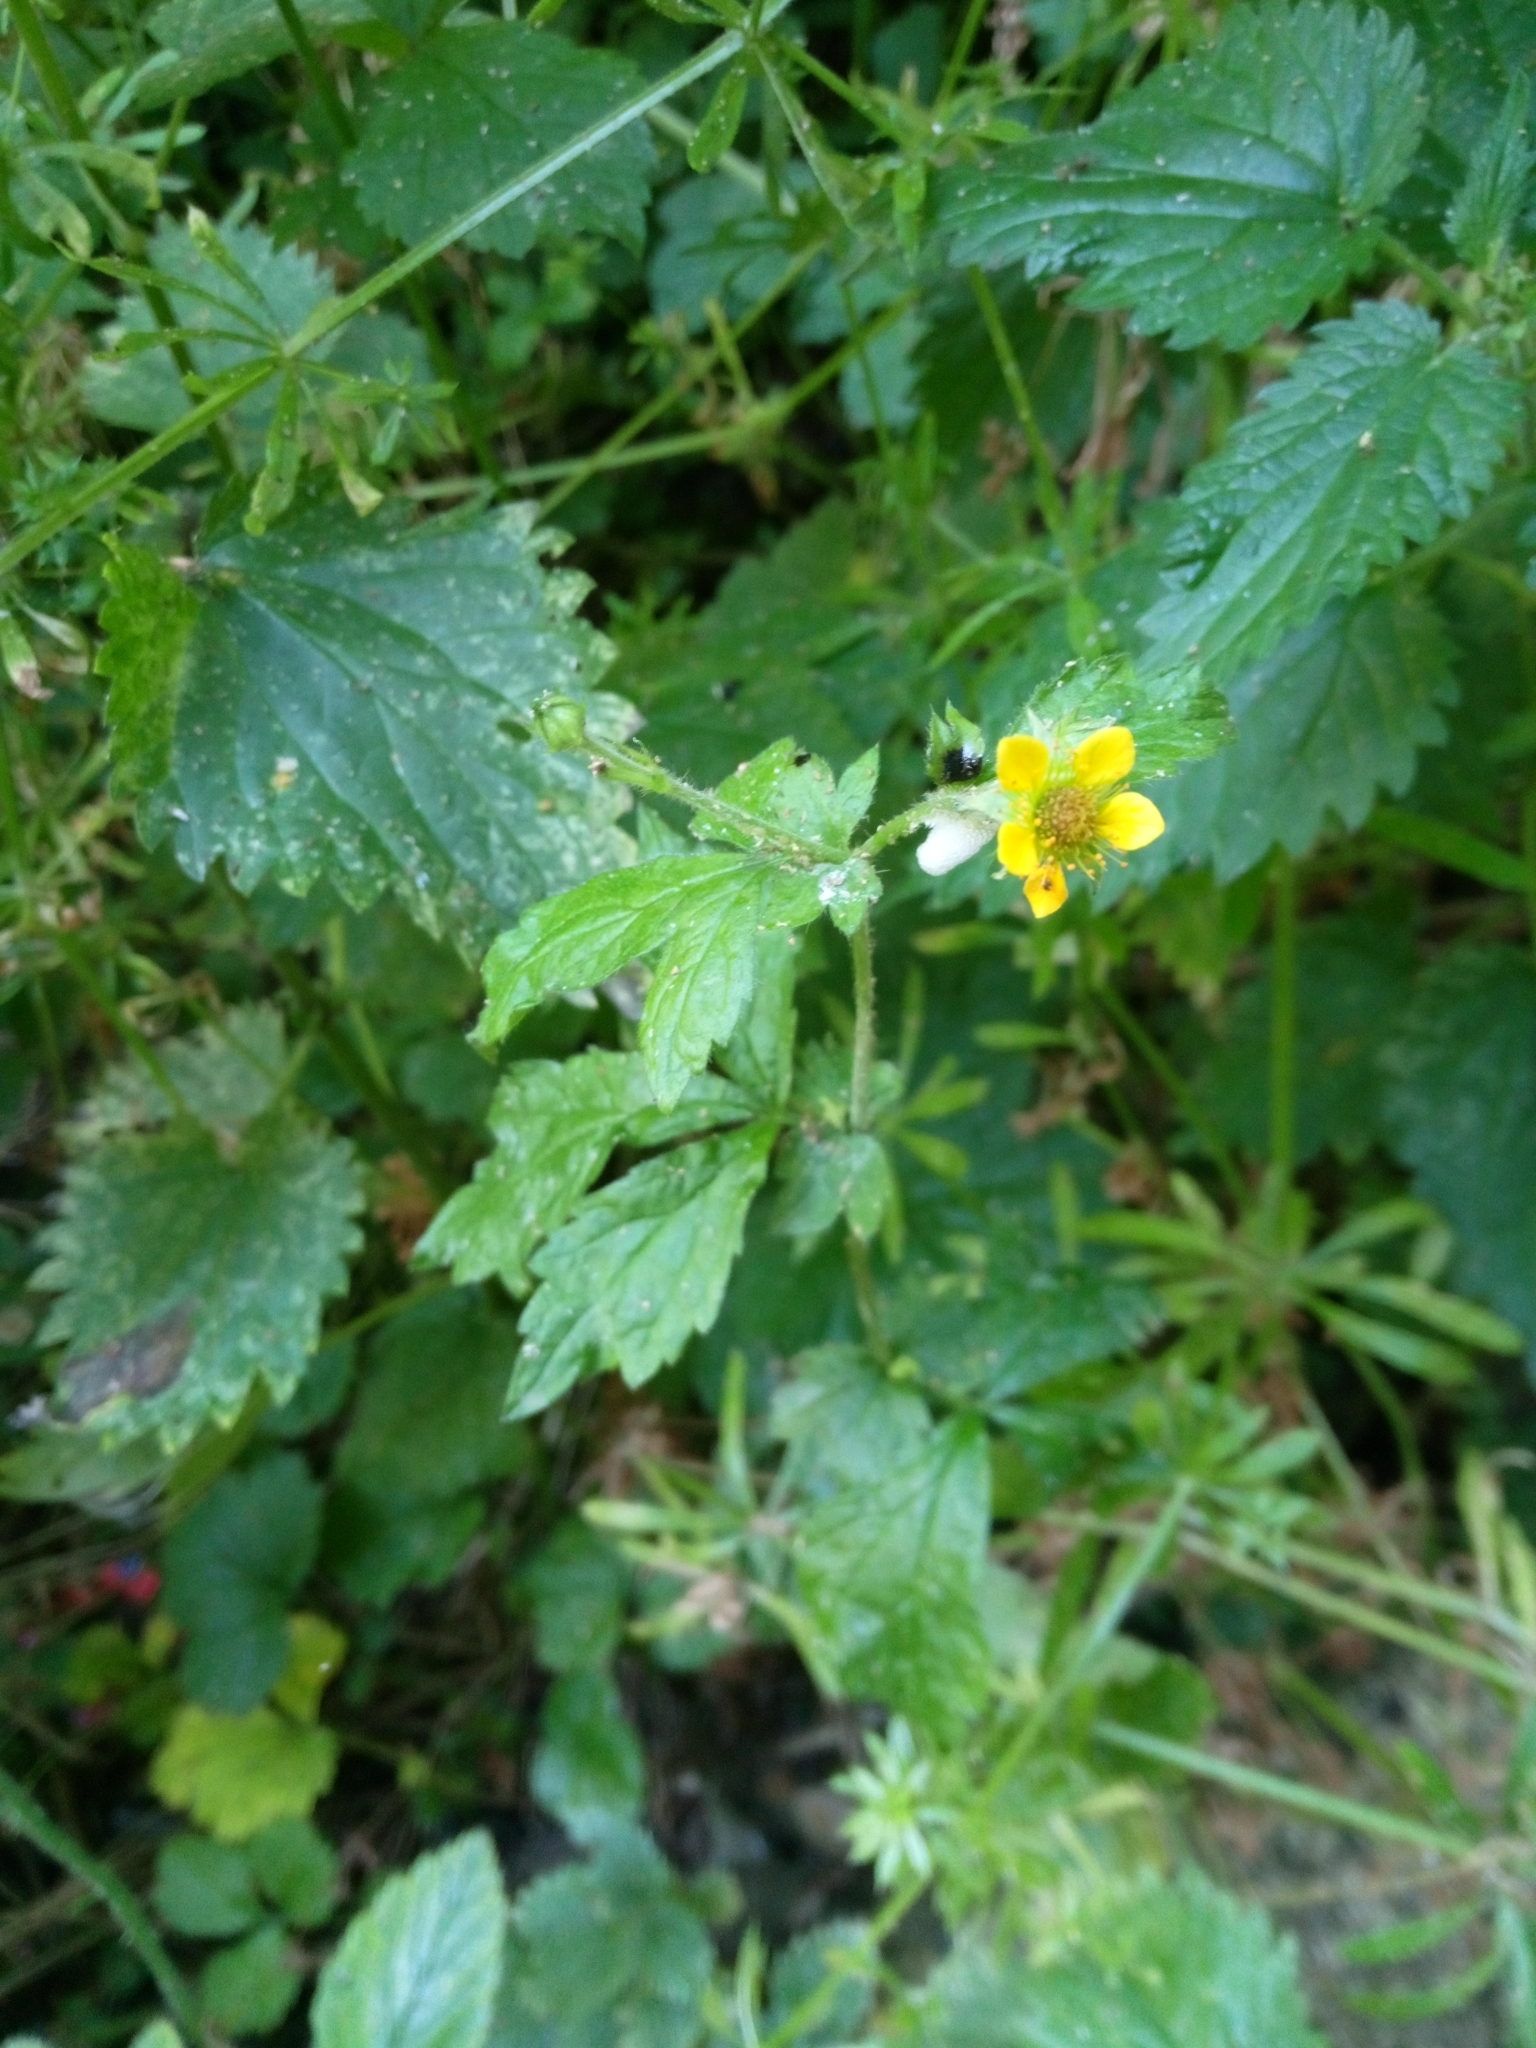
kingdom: Plantae
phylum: Tracheophyta
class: Magnoliopsida
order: Rosales
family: Rosaceae
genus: Geum
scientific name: Geum urbanum
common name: Wood avens
